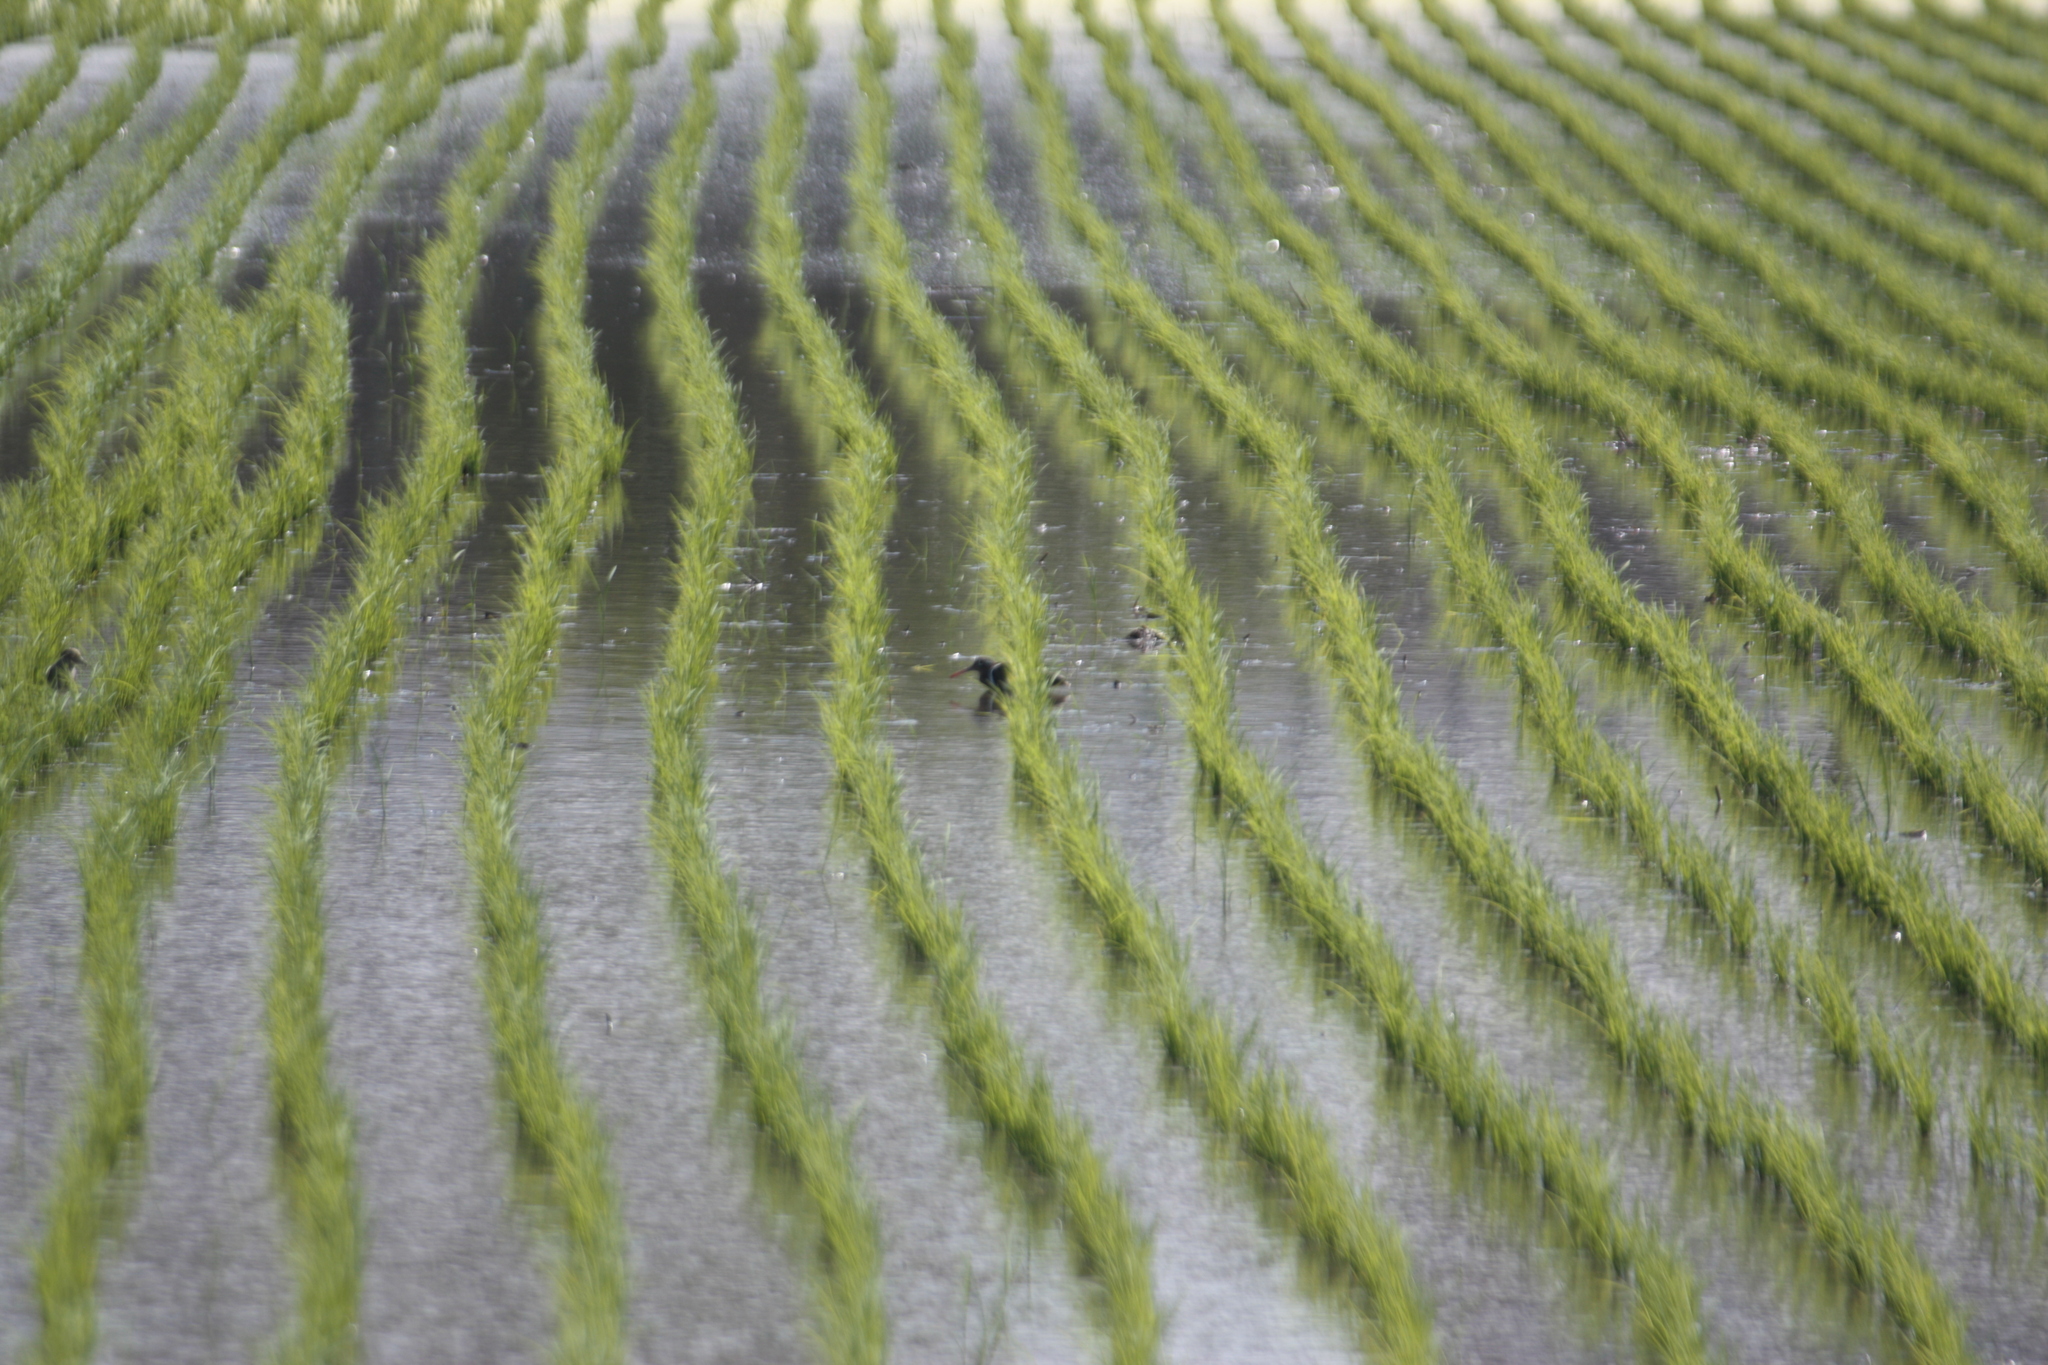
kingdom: Animalia
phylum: Chordata
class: Aves
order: Charadriiformes
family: Rostratulidae
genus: Rostratula
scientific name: Rostratula benghalensis
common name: Greater painted-snipe
